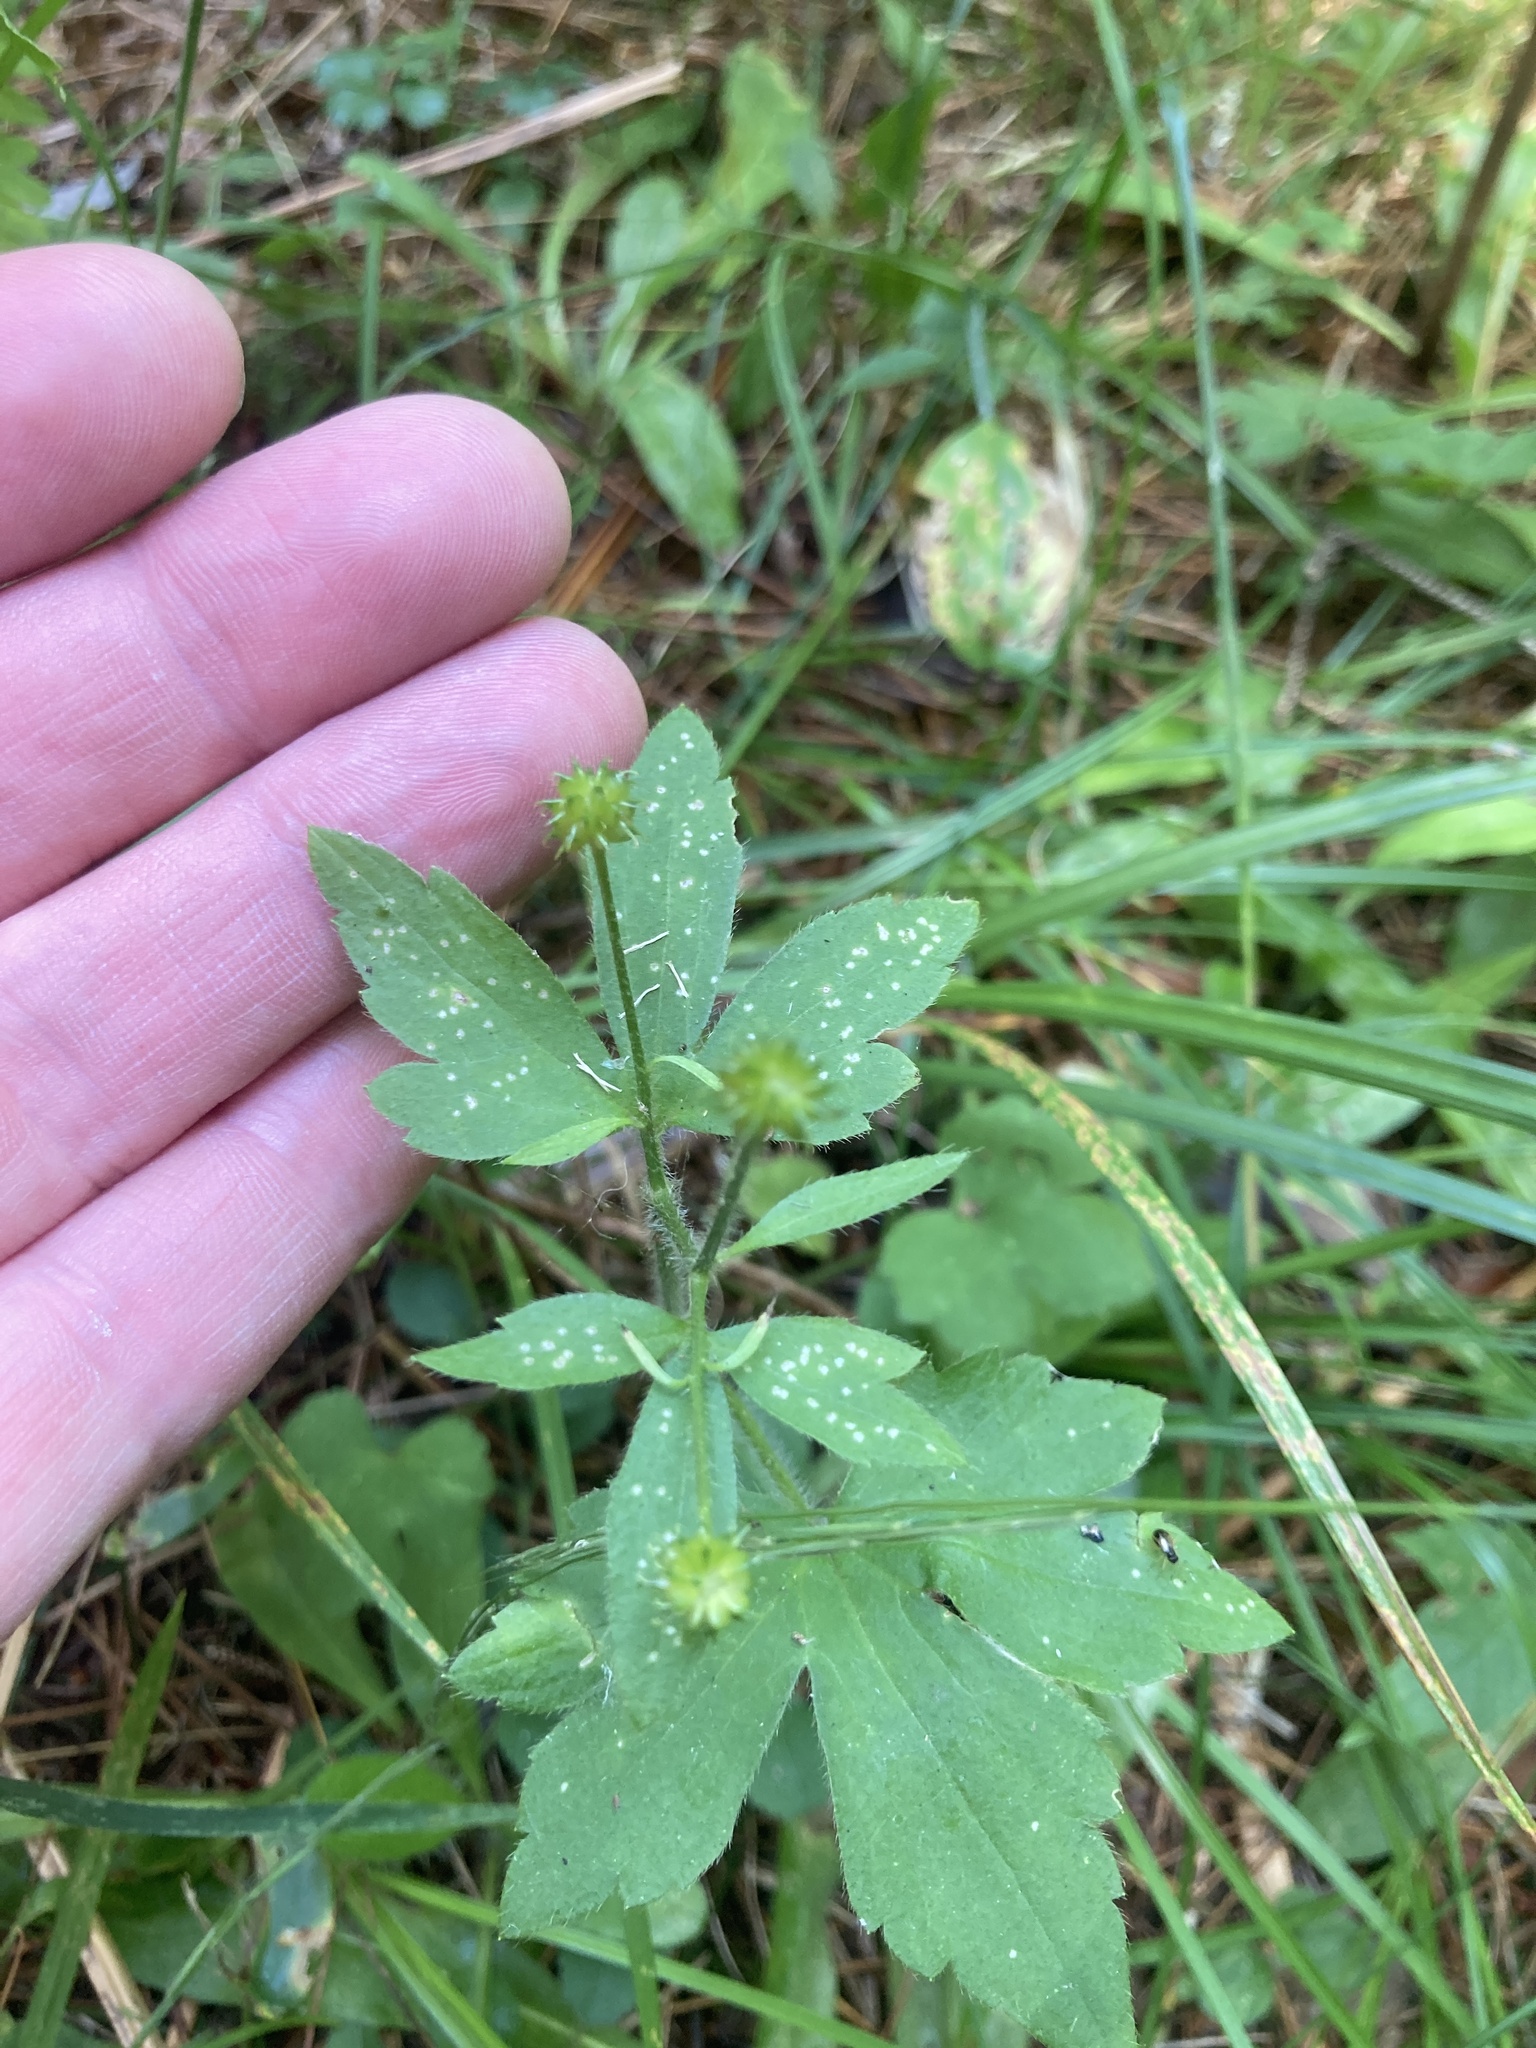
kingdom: Plantae
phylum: Tracheophyta
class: Magnoliopsida
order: Ranunculales
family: Ranunculaceae
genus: Ranunculus
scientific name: Ranunculus recurvatus
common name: Blisterwort
